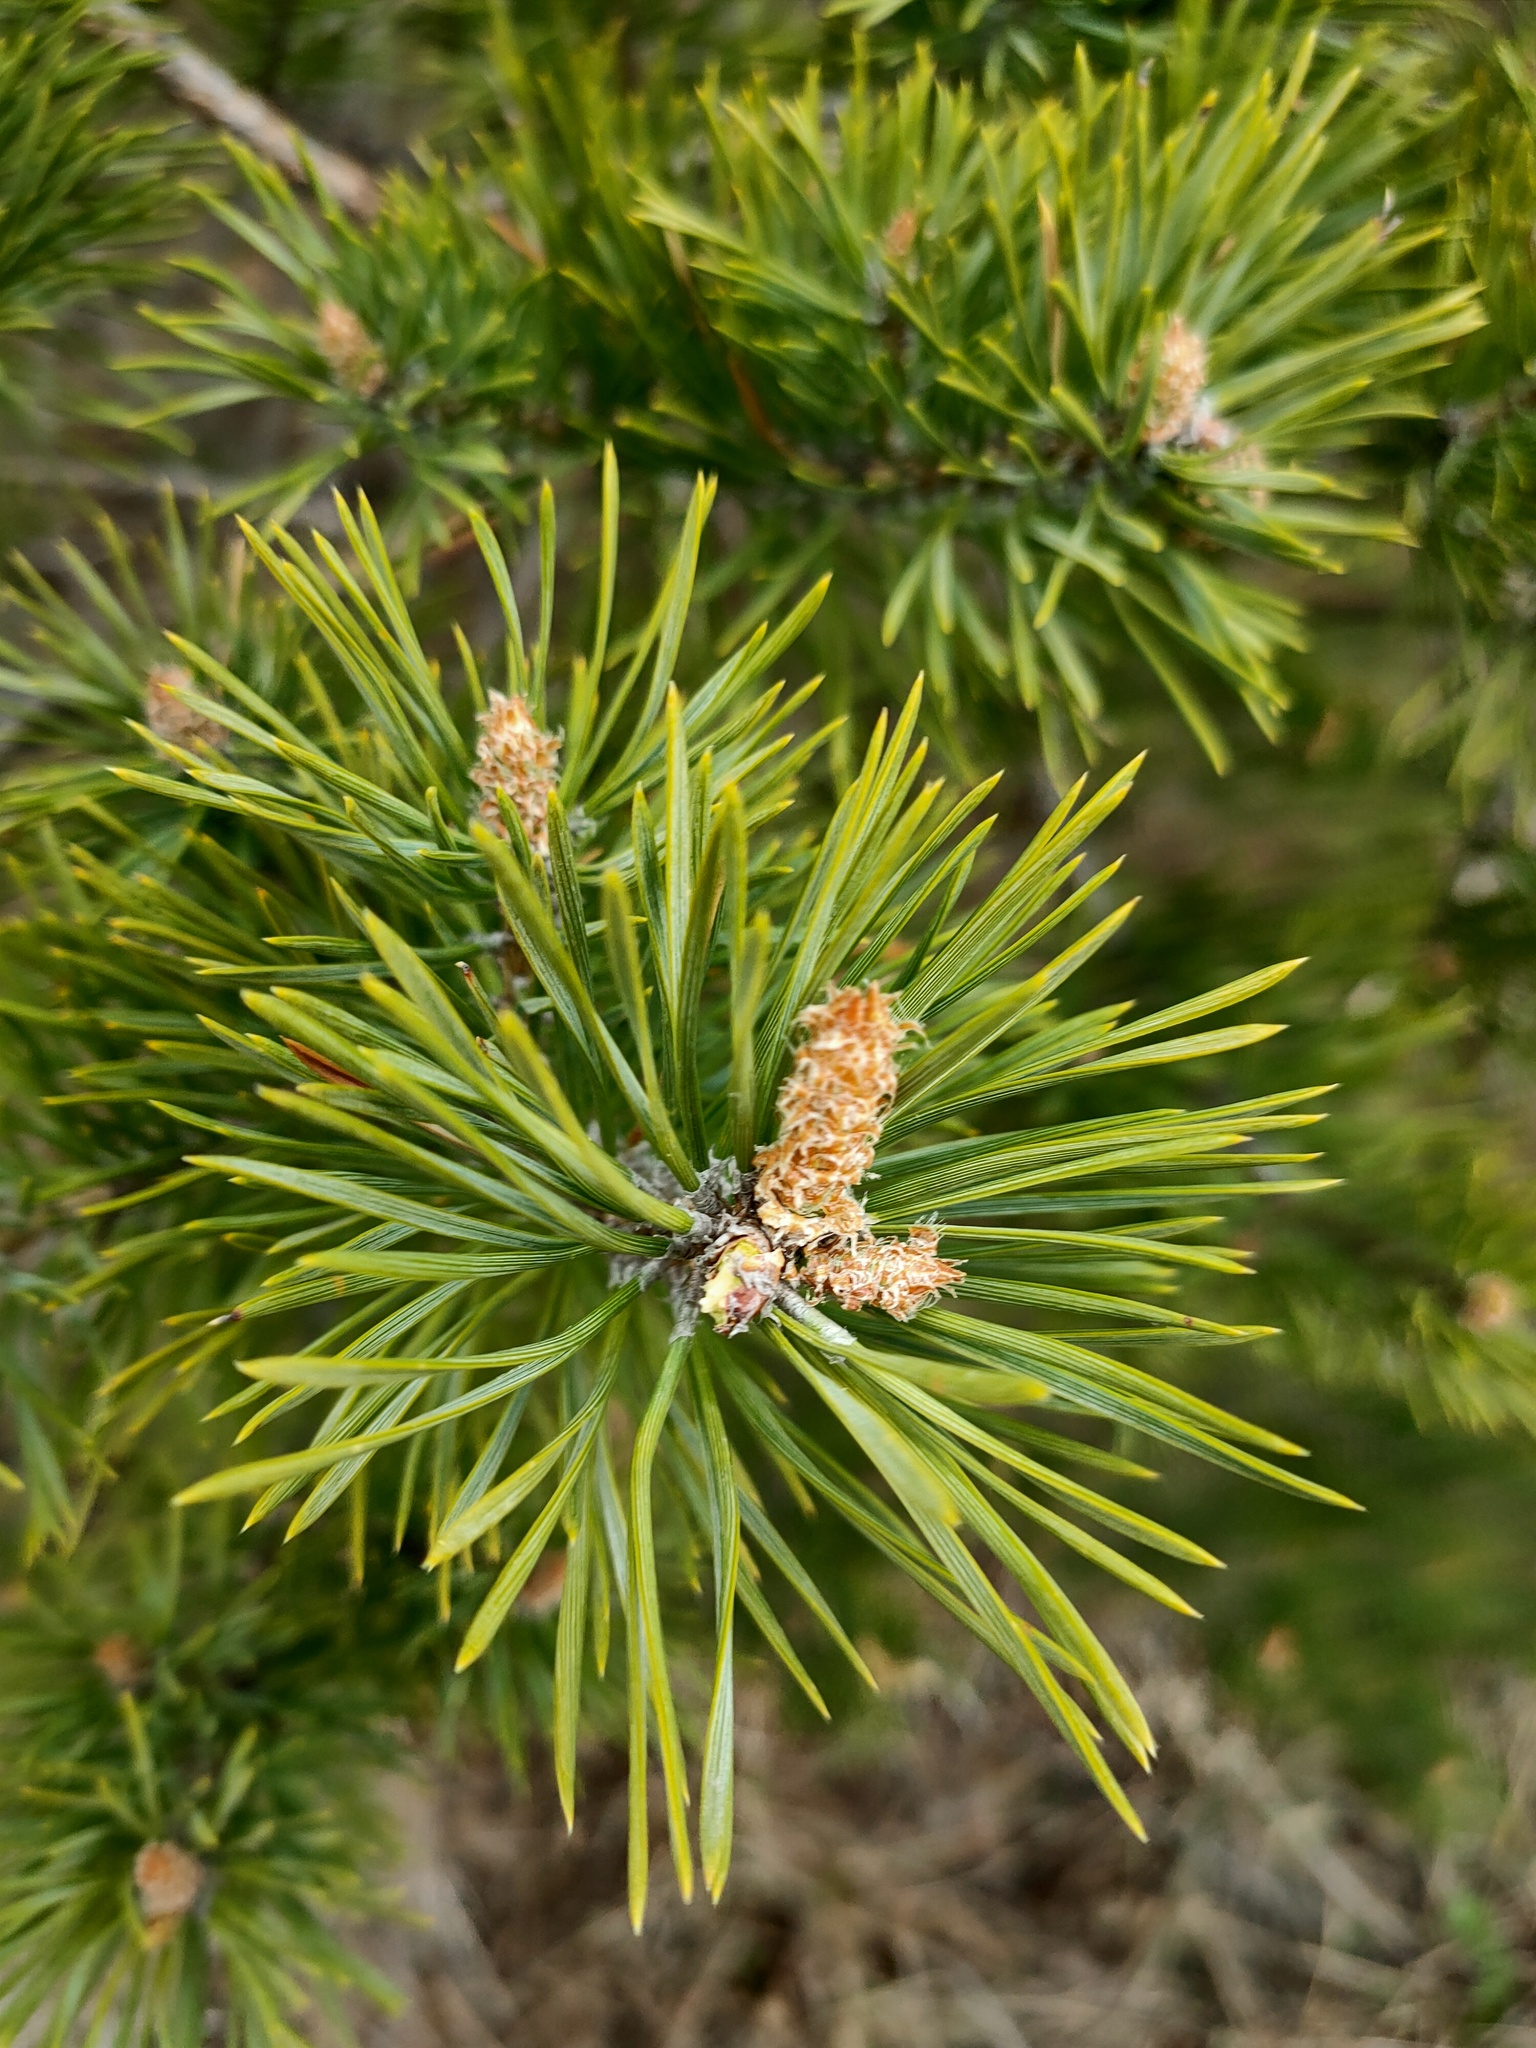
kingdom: Plantae
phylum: Tracheophyta
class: Pinopsida
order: Pinales
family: Pinaceae
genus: Pinus
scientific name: Pinus sylvestris
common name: Scots pine
